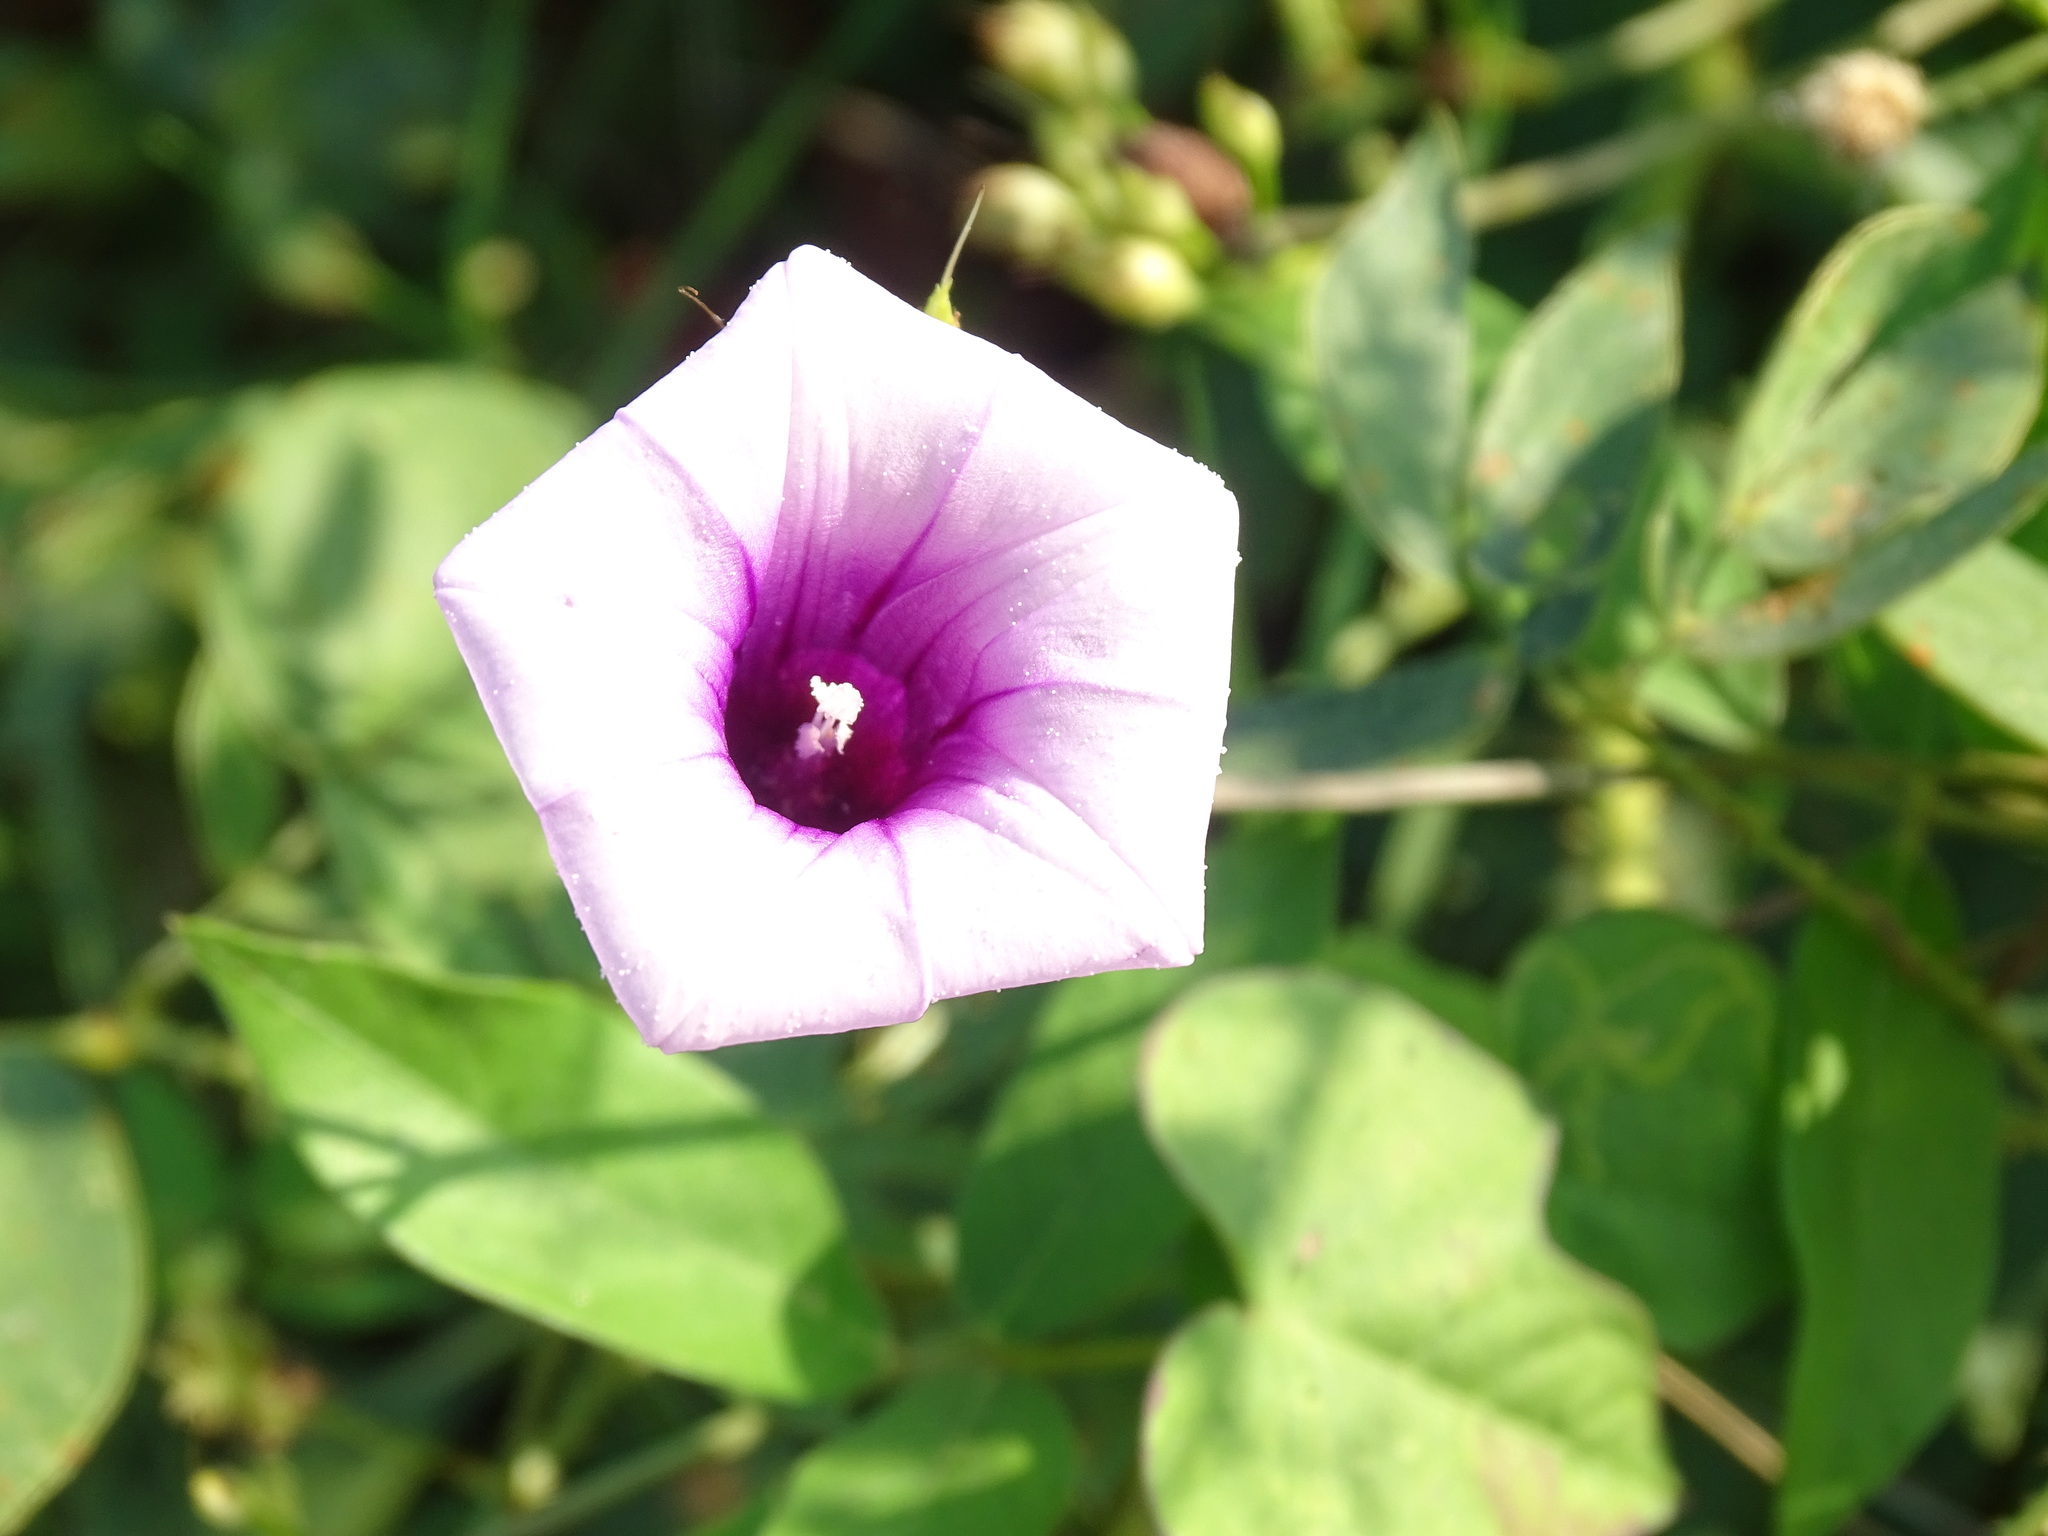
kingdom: Plantae
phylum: Tracheophyta
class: Magnoliopsida
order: Solanales
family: Convolvulaceae
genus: Ipomoea
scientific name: Ipomoea trifida
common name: Cotton morningglory
